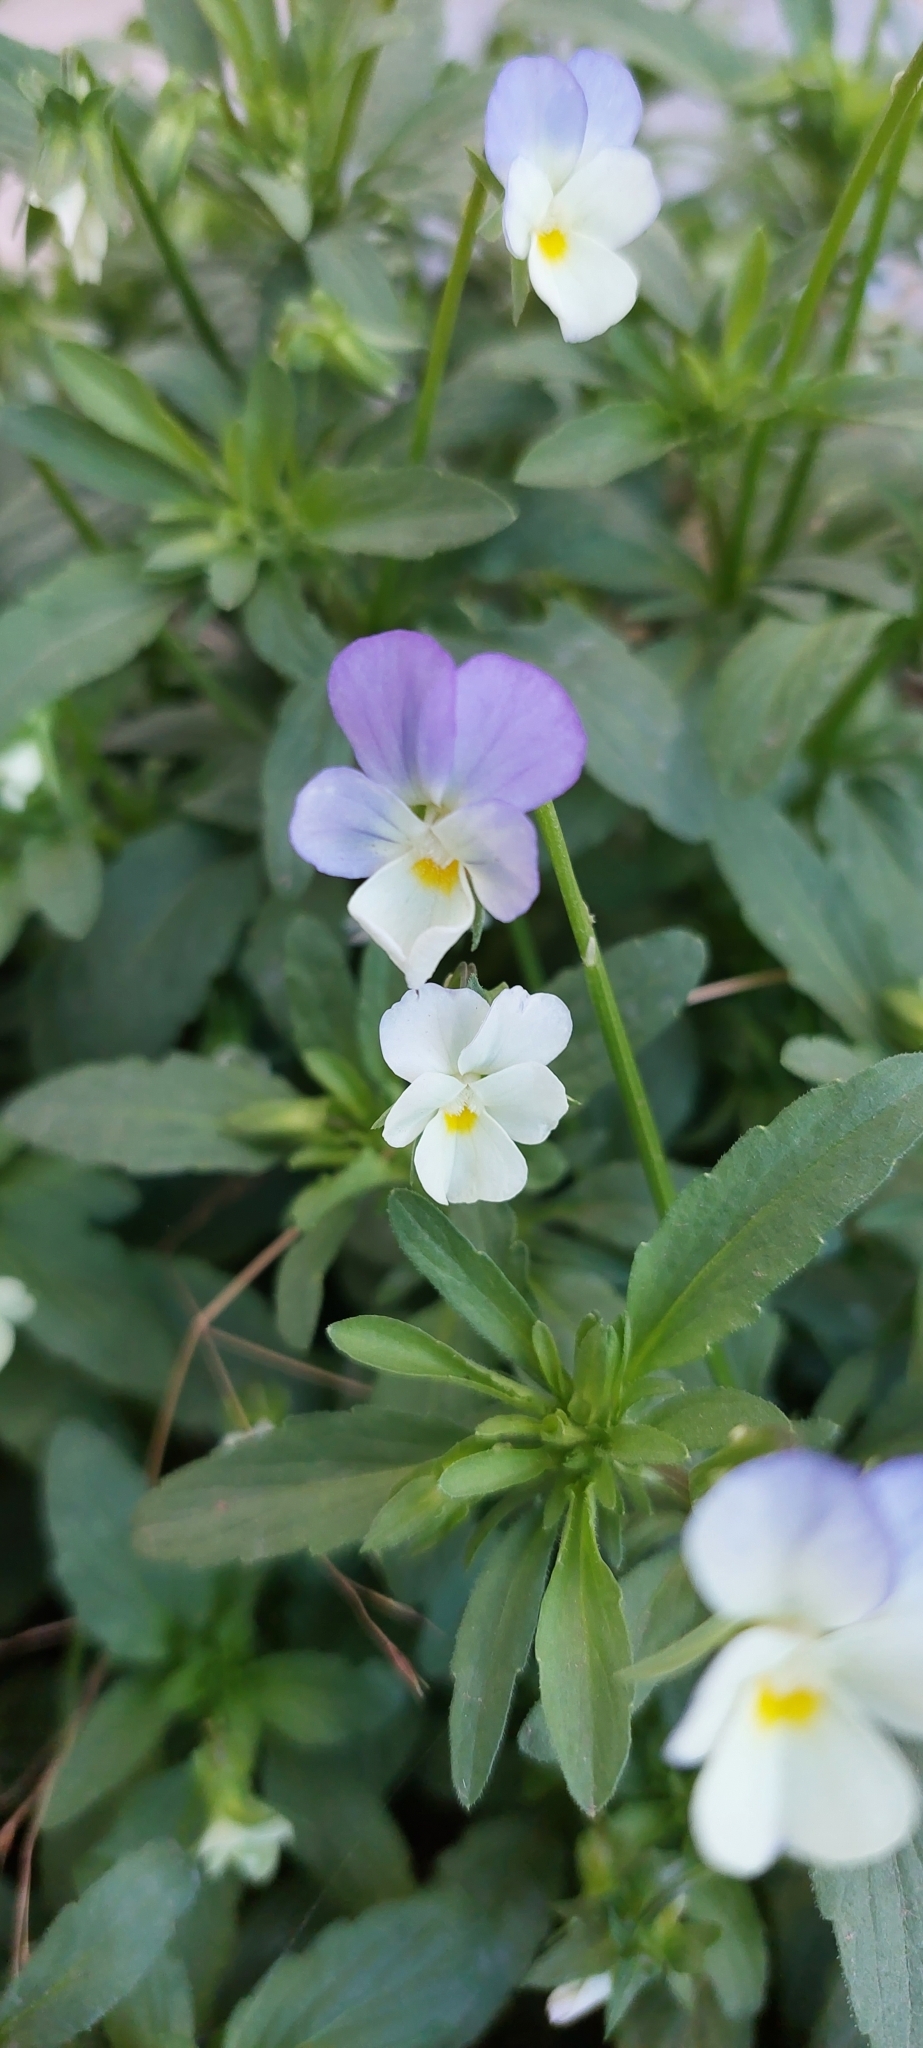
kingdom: Plantae
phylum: Tracheophyta
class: Magnoliopsida
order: Malpighiales
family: Violaceae
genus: Viola
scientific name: Viola arvensis
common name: Field pansy
